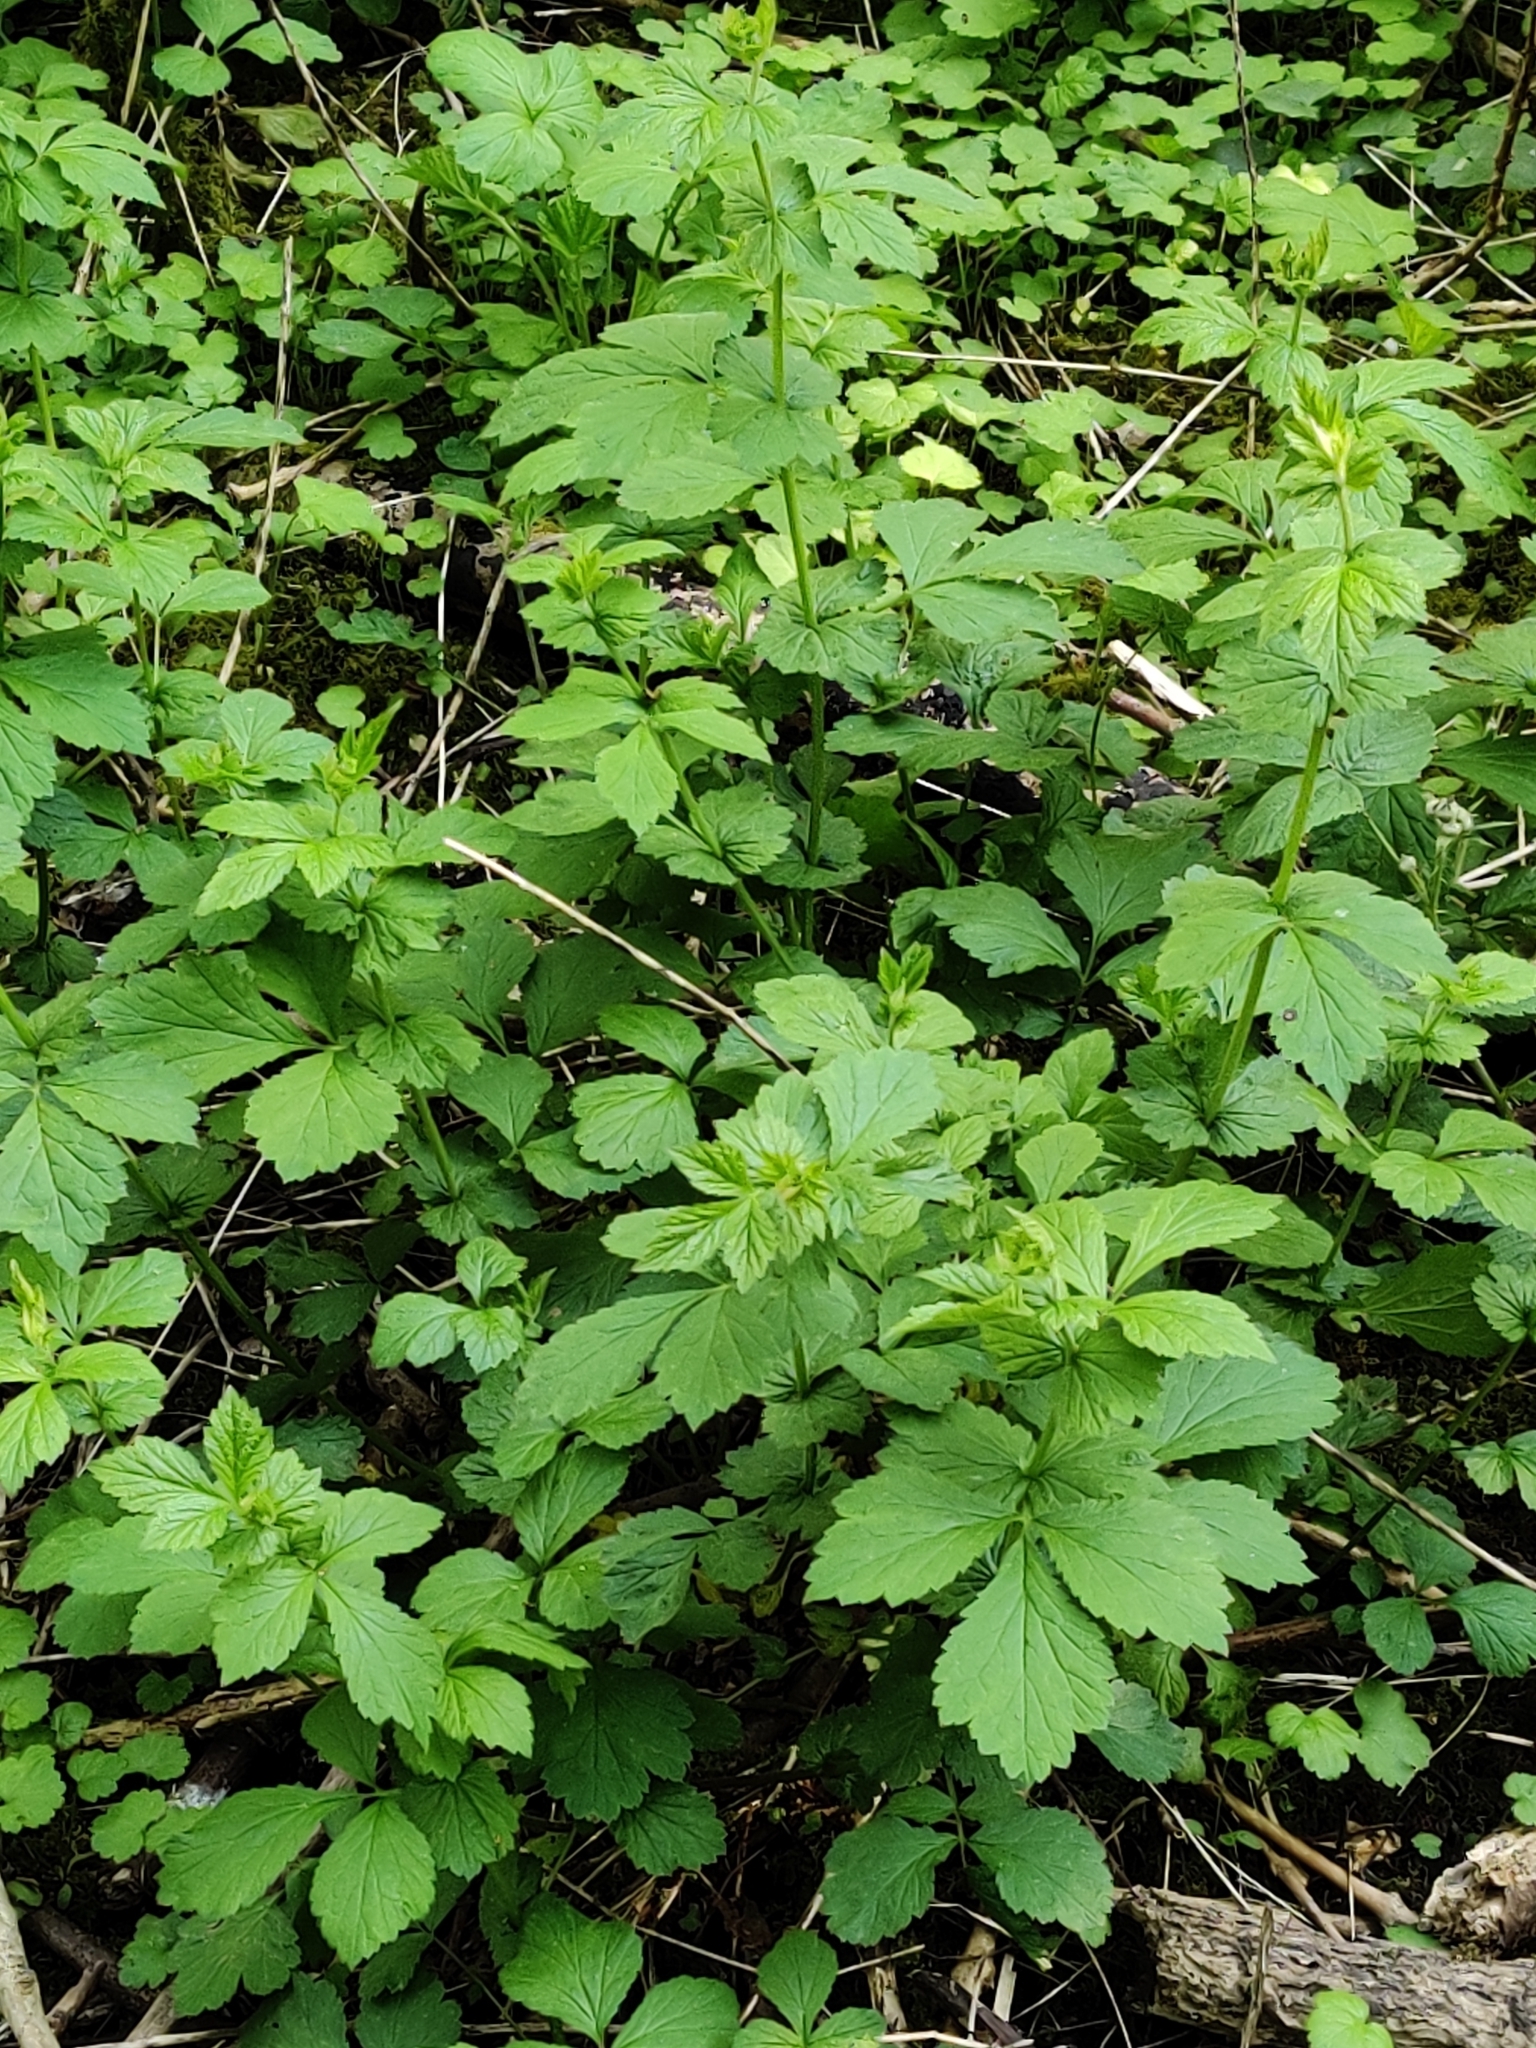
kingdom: Plantae
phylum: Tracheophyta
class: Magnoliopsida
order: Rosales
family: Rosaceae
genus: Geum
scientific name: Geum urbanum
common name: Wood avens
